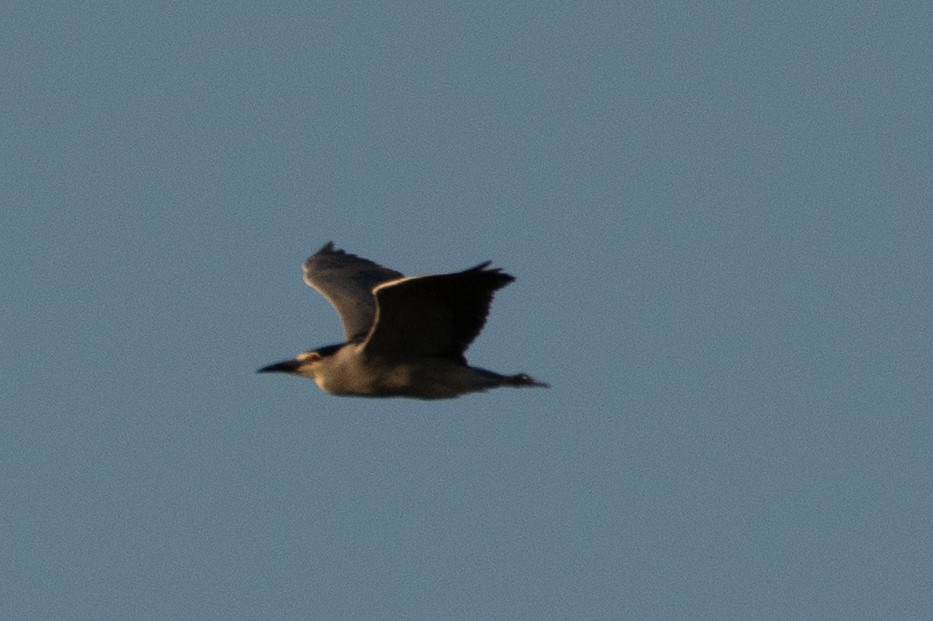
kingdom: Animalia
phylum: Chordata
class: Aves
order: Pelecaniformes
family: Ardeidae
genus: Nycticorax
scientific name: Nycticorax nycticorax
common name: Black-crowned night heron
